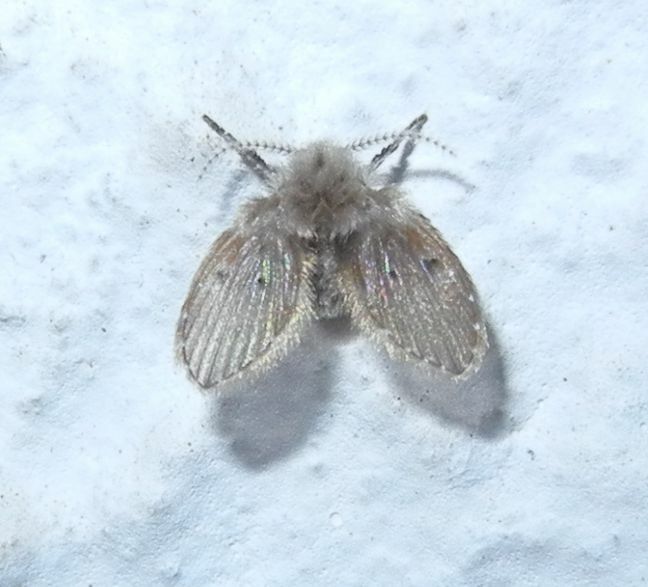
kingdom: Animalia
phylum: Arthropoda
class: Insecta
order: Diptera
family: Psychodidae
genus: Clogmia
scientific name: Clogmia albipunctatus
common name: White-spotted moth fly
